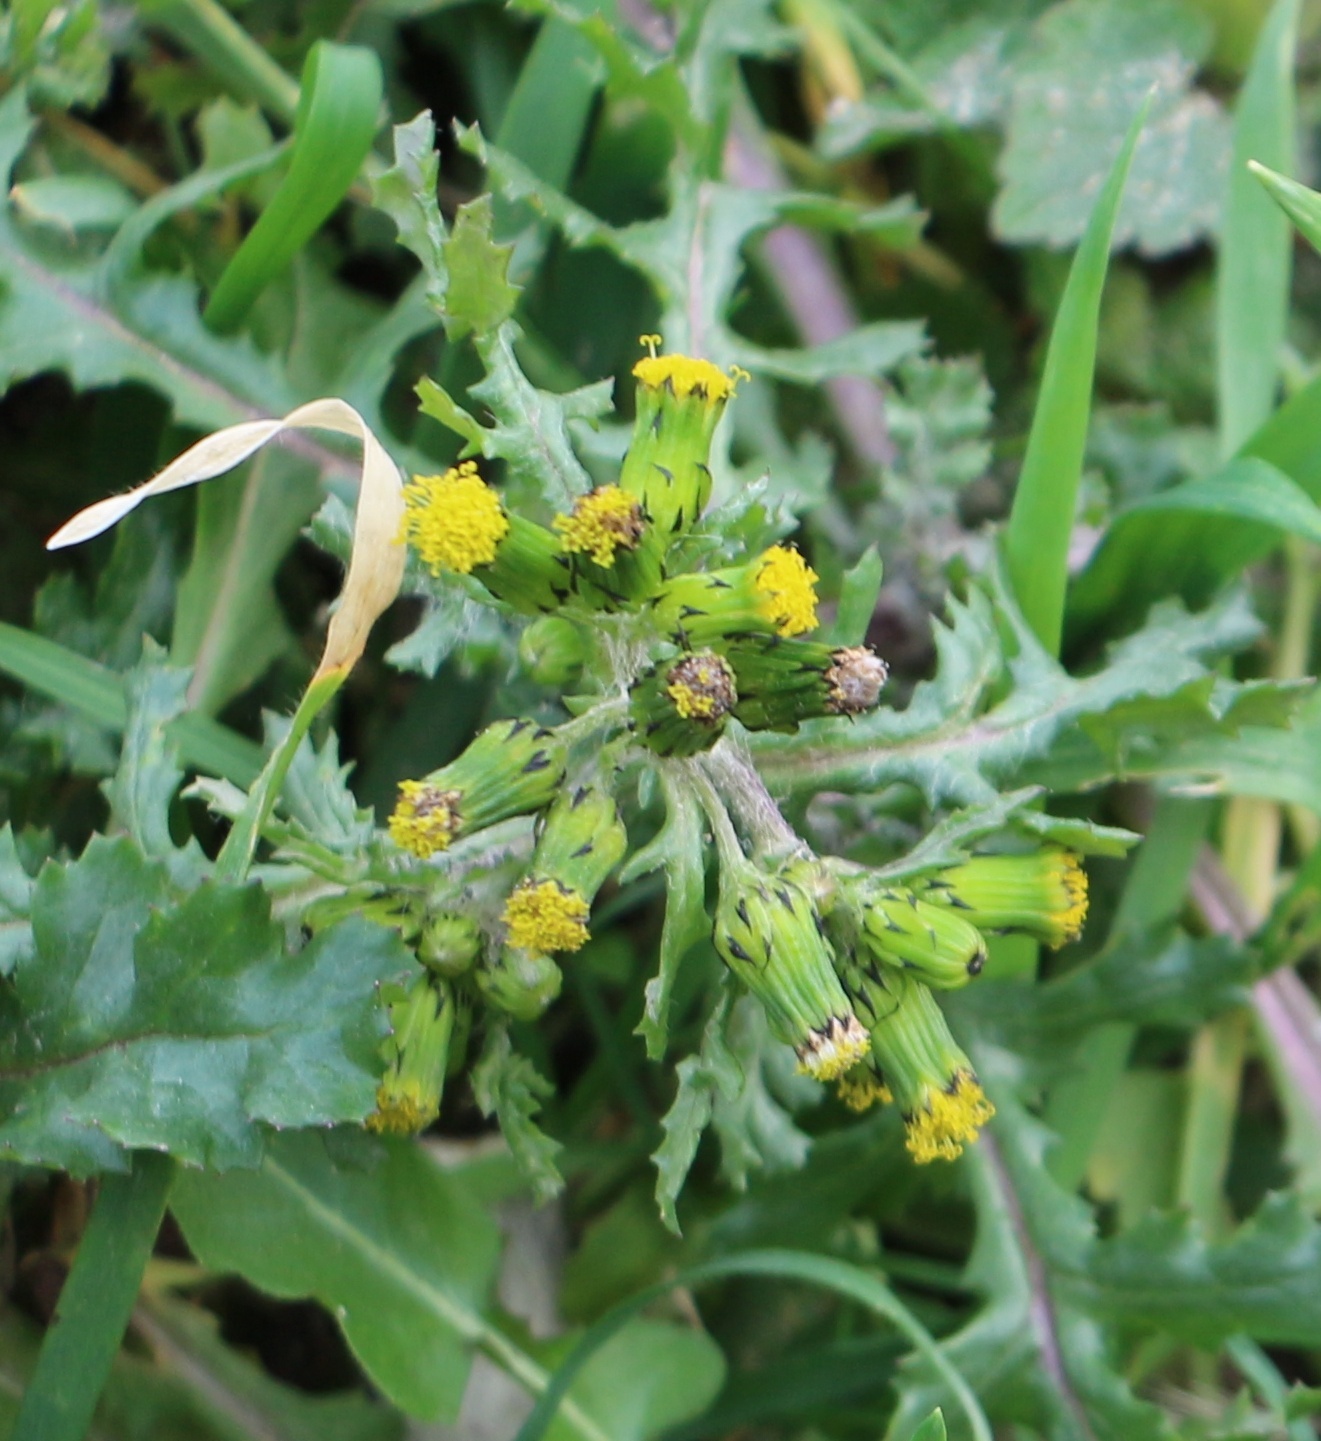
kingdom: Plantae
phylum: Tracheophyta
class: Magnoliopsida
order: Asterales
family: Asteraceae
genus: Senecio
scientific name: Senecio vulgaris
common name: Old-man-in-the-spring
